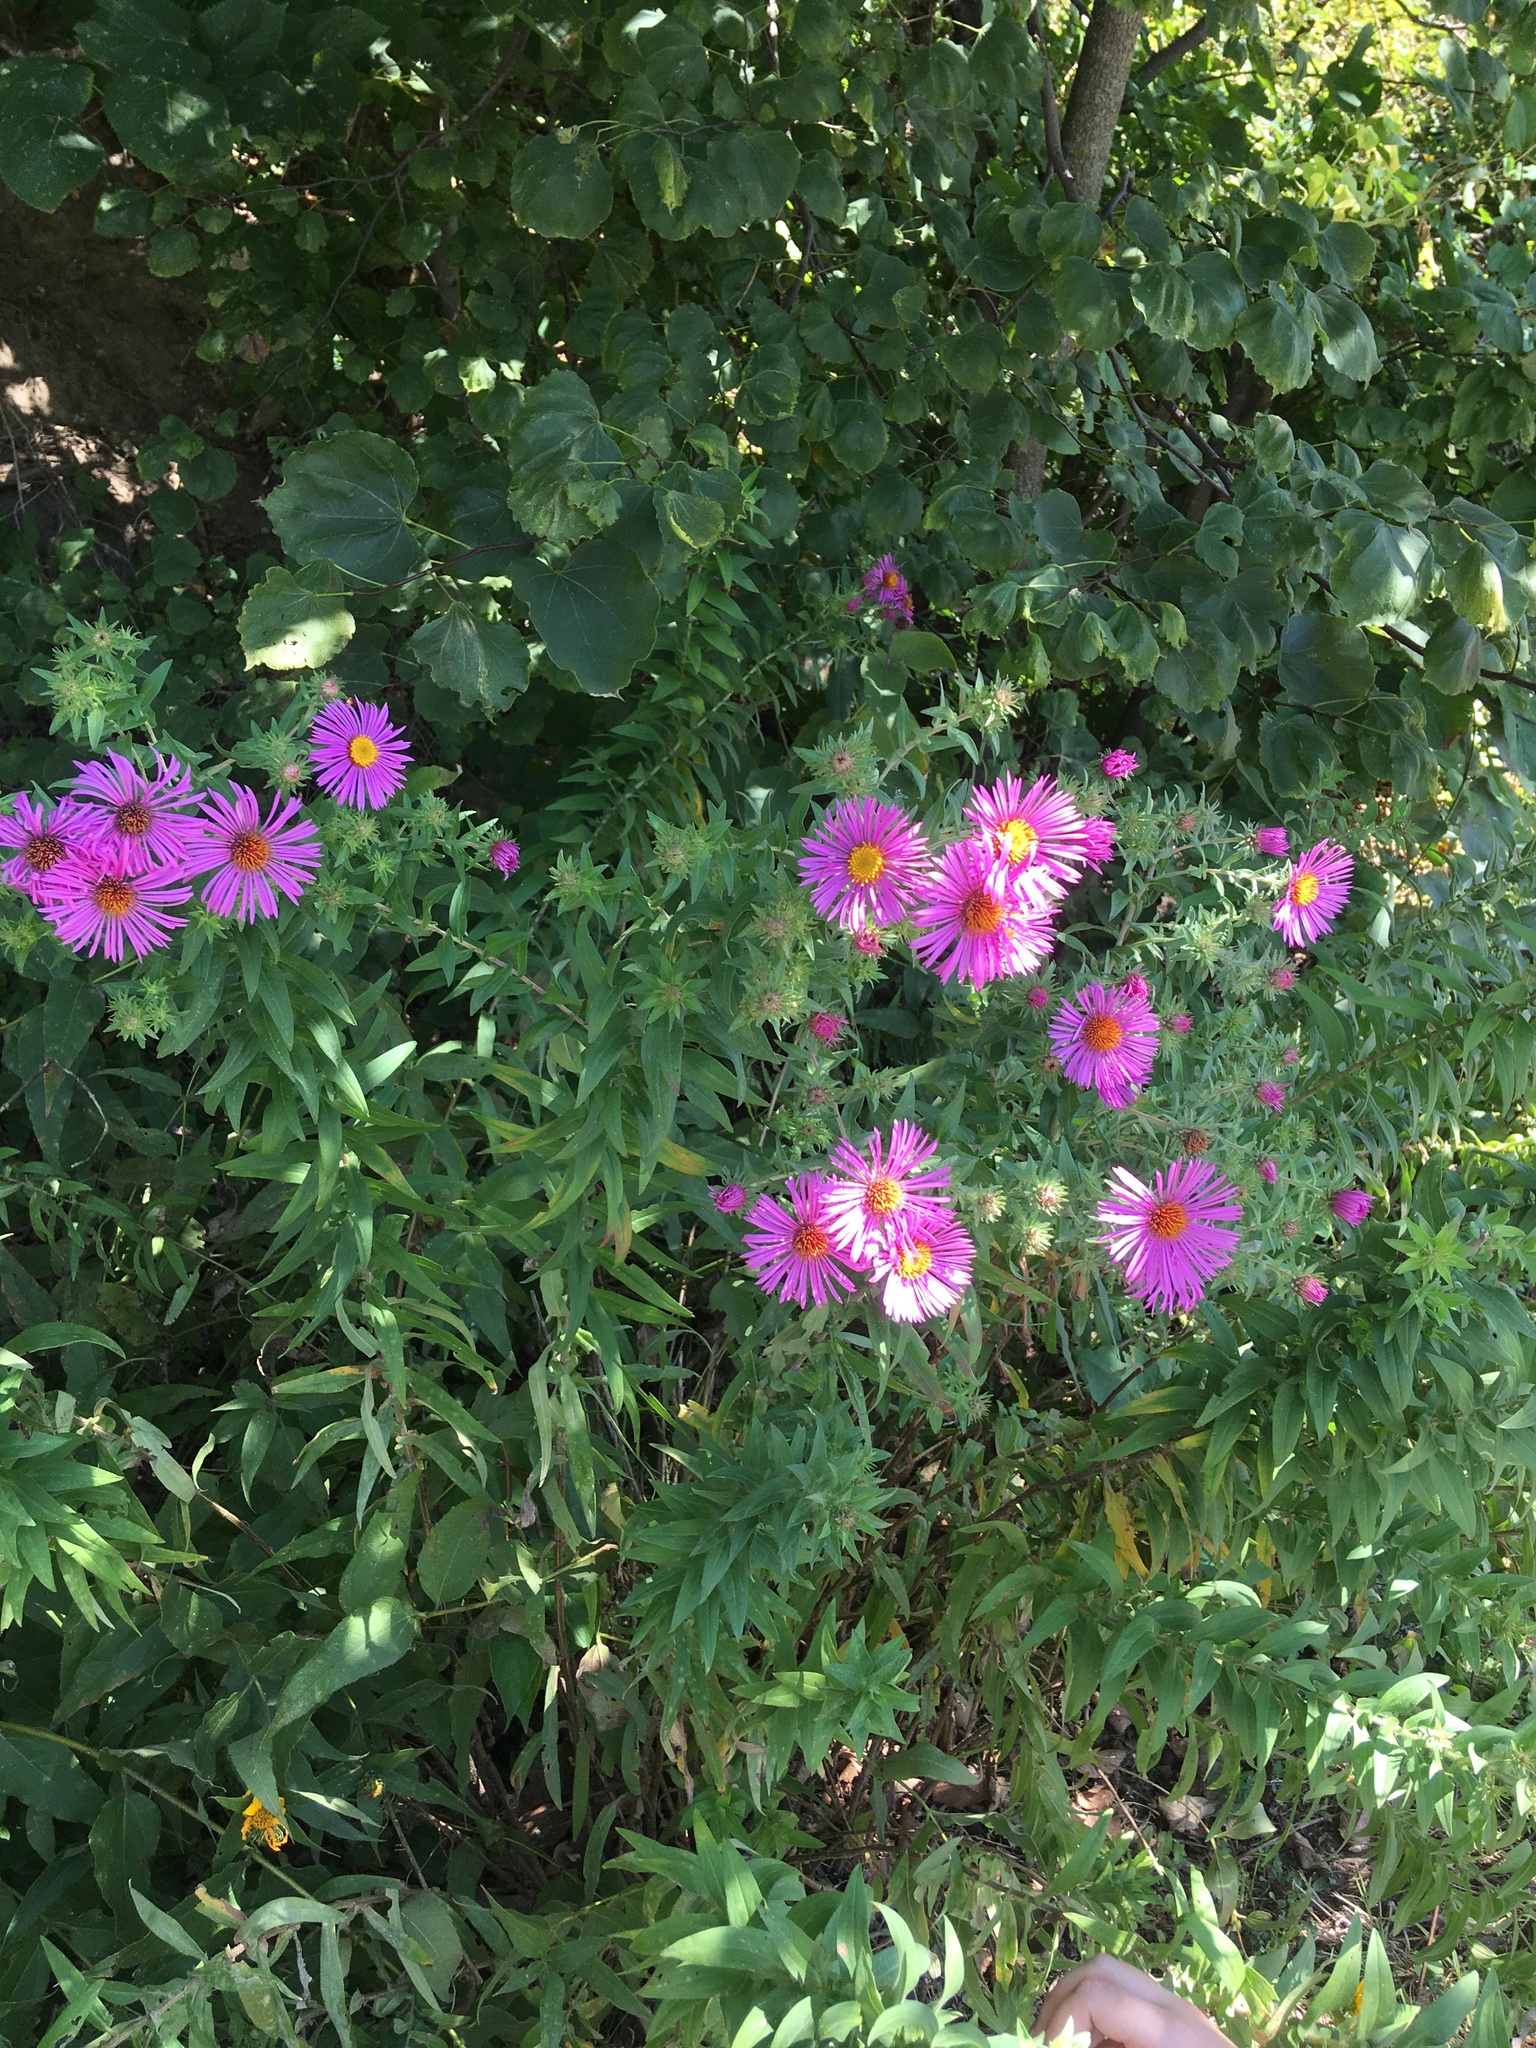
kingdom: Plantae
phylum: Tracheophyta
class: Magnoliopsida
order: Asterales
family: Asteraceae
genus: Symphyotrichum
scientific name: Symphyotrichum novae-angliae
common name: Michaelmas daisy
